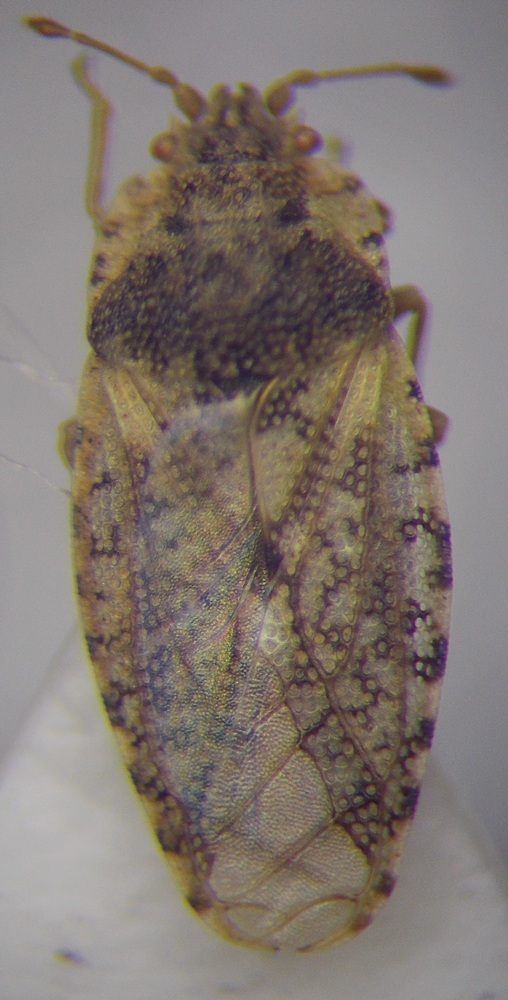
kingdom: Animalia
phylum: Arthropoda
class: Insecta
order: Hemiptera
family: Piesmatidae
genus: Parapiesma
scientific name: Parapiesma quadratum
